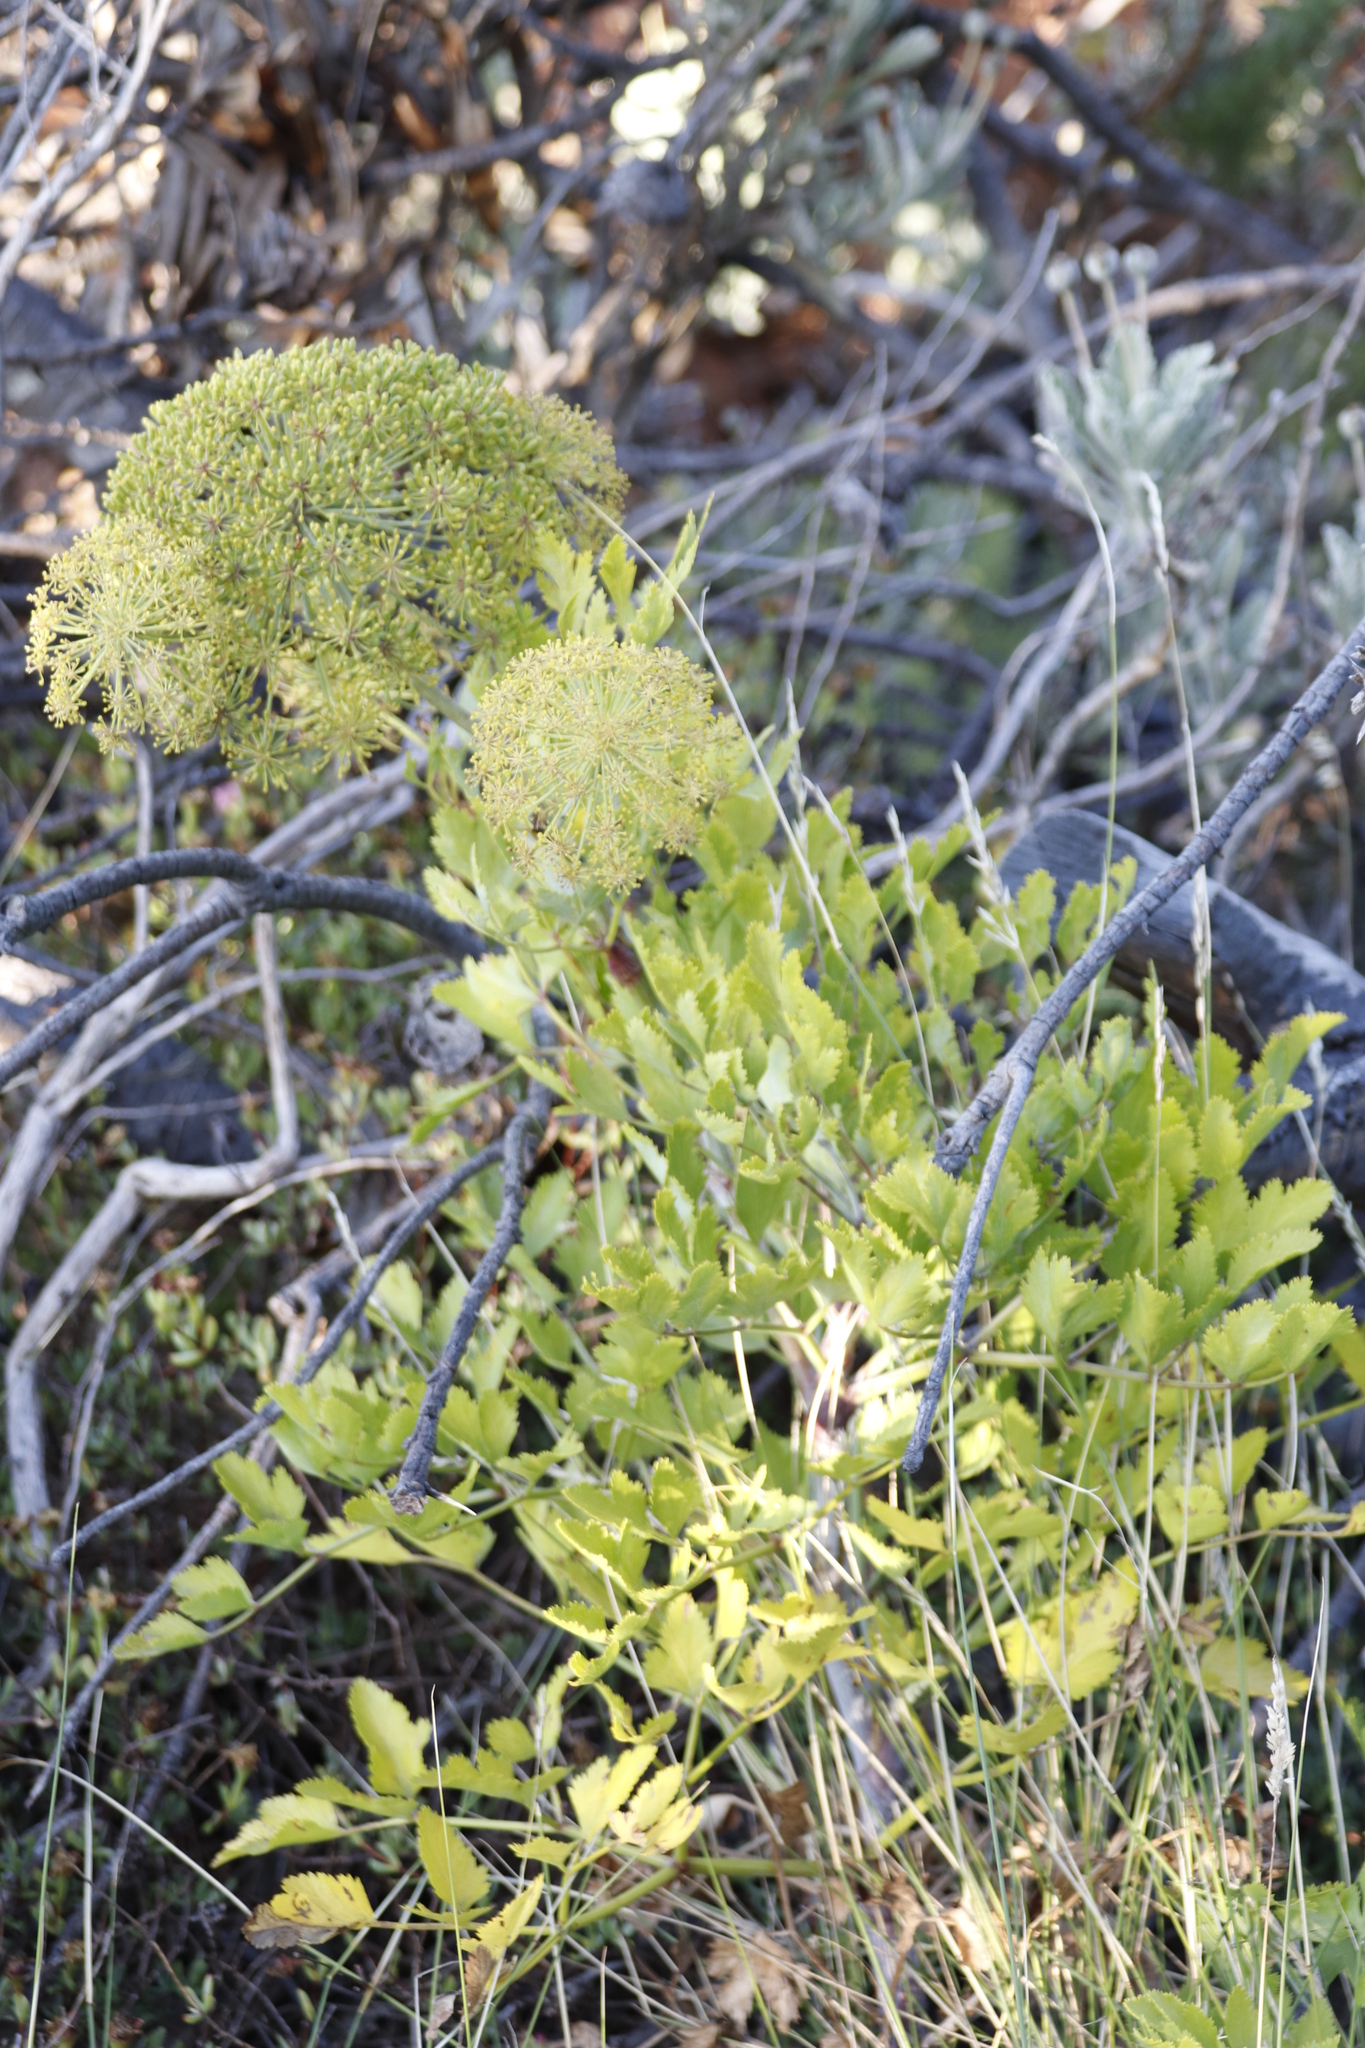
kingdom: Plantae
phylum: Tracheophyta
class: Magnoliopsida
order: Apiales
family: Apiaceae
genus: Notobubon
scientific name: Notobubon galbanum
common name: Blisterbush
